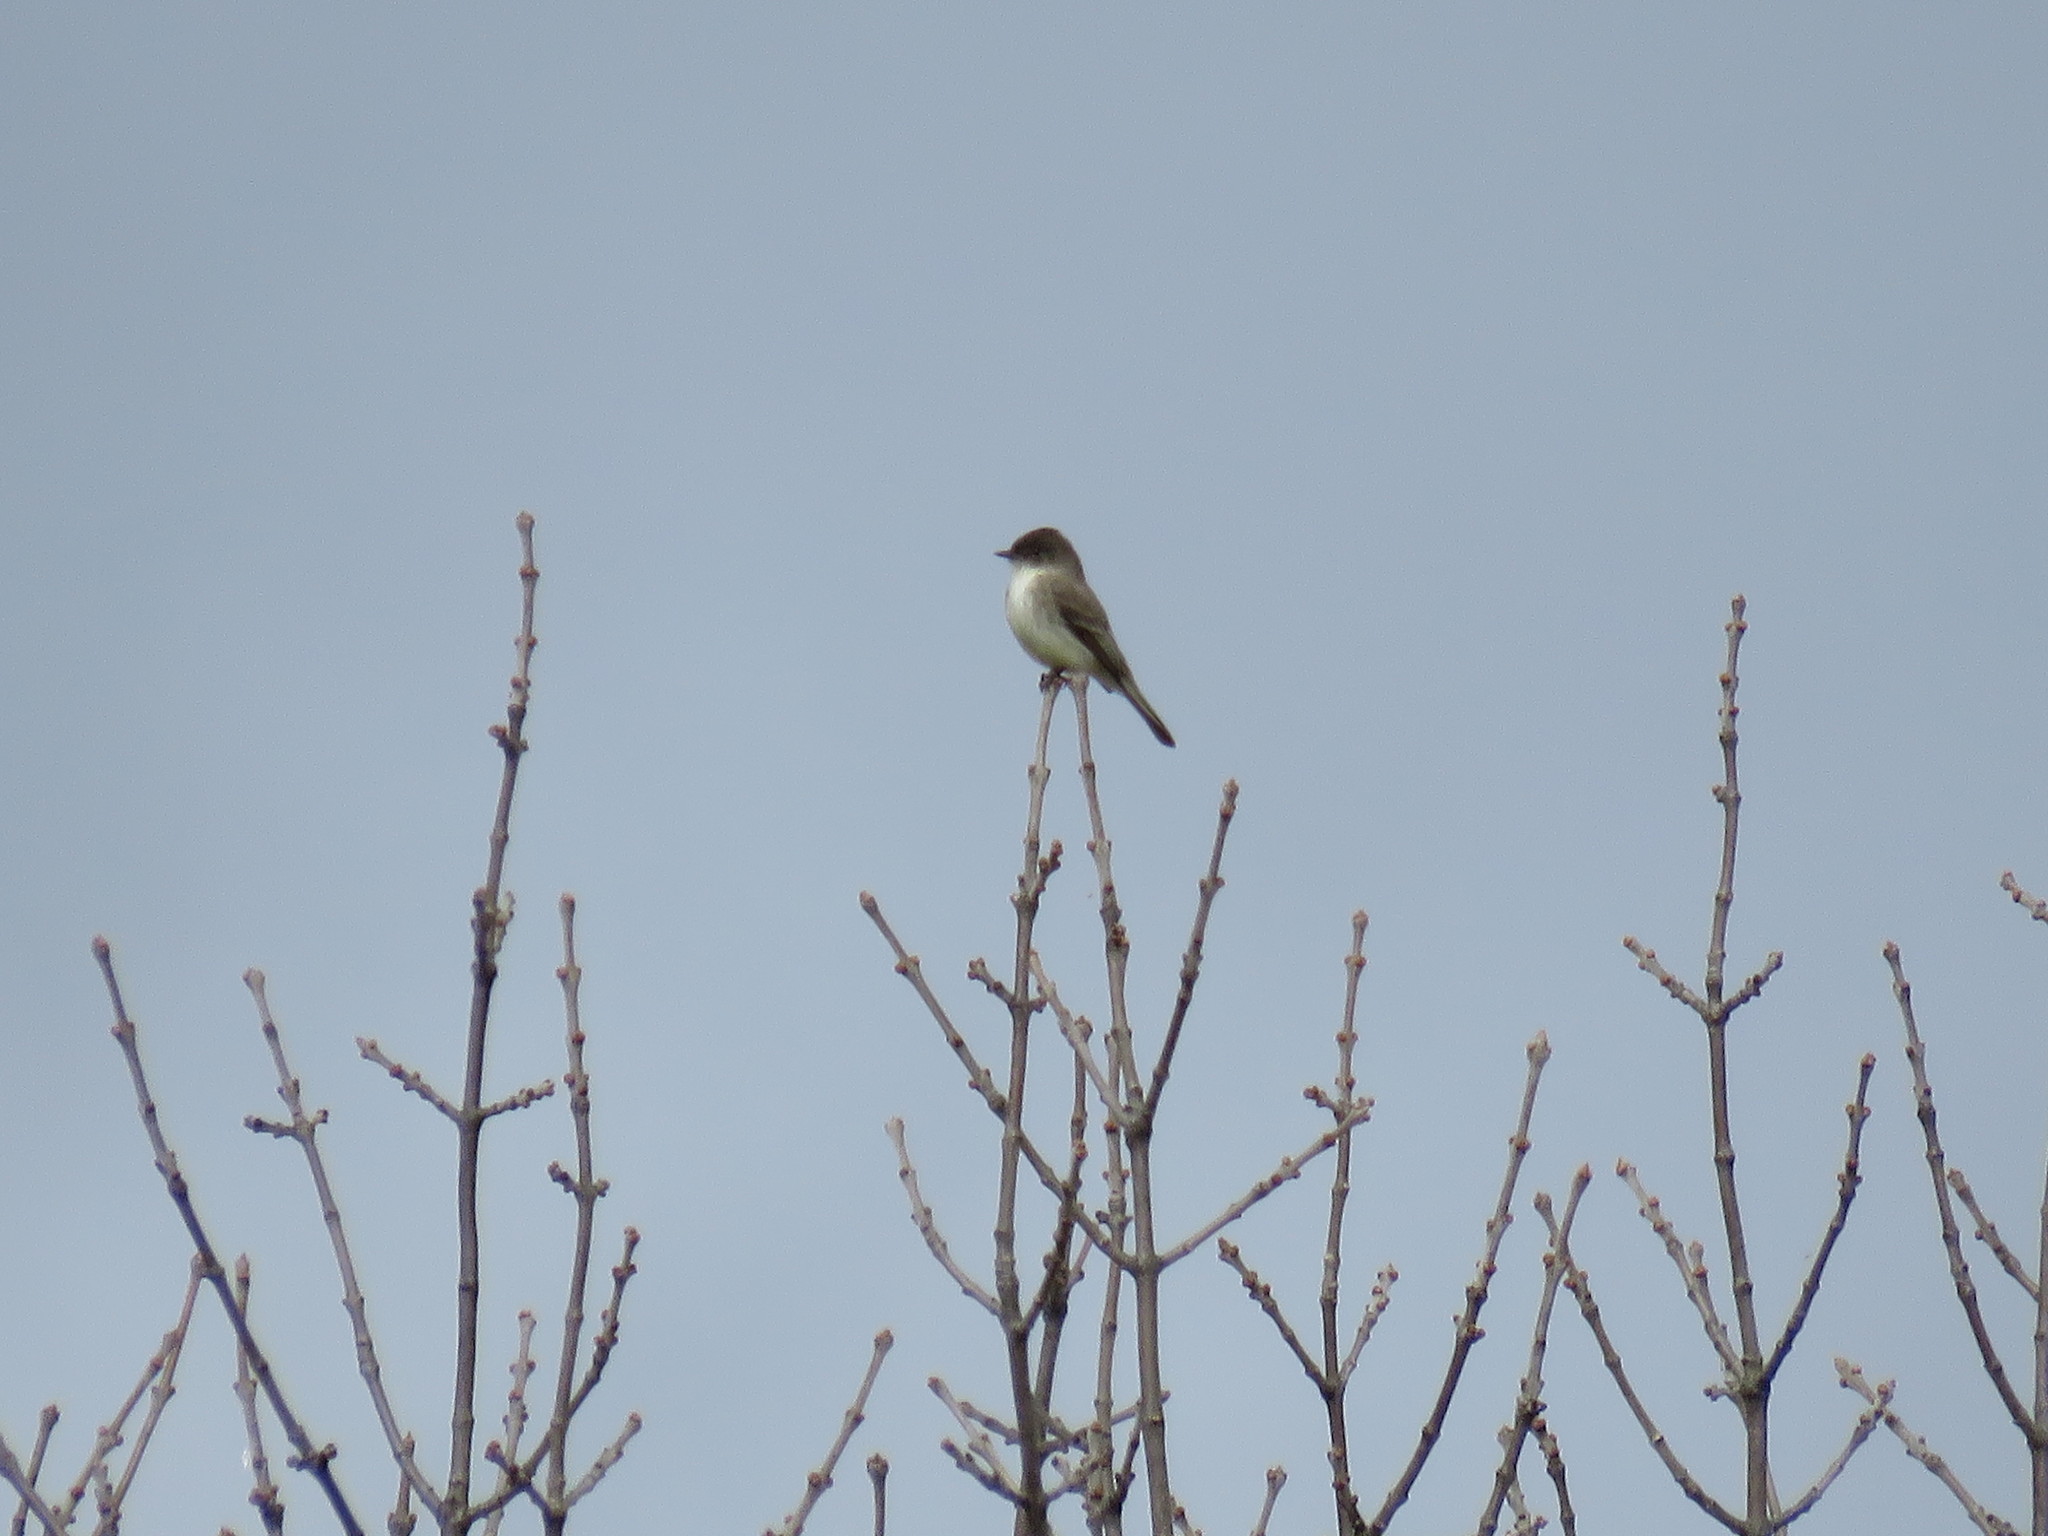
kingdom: Animalia
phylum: Chordata
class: Aves
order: Passeriformes
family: Tyrannidae
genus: Sayornis
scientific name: Sayornis phoebe
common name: Eastern phoebe
